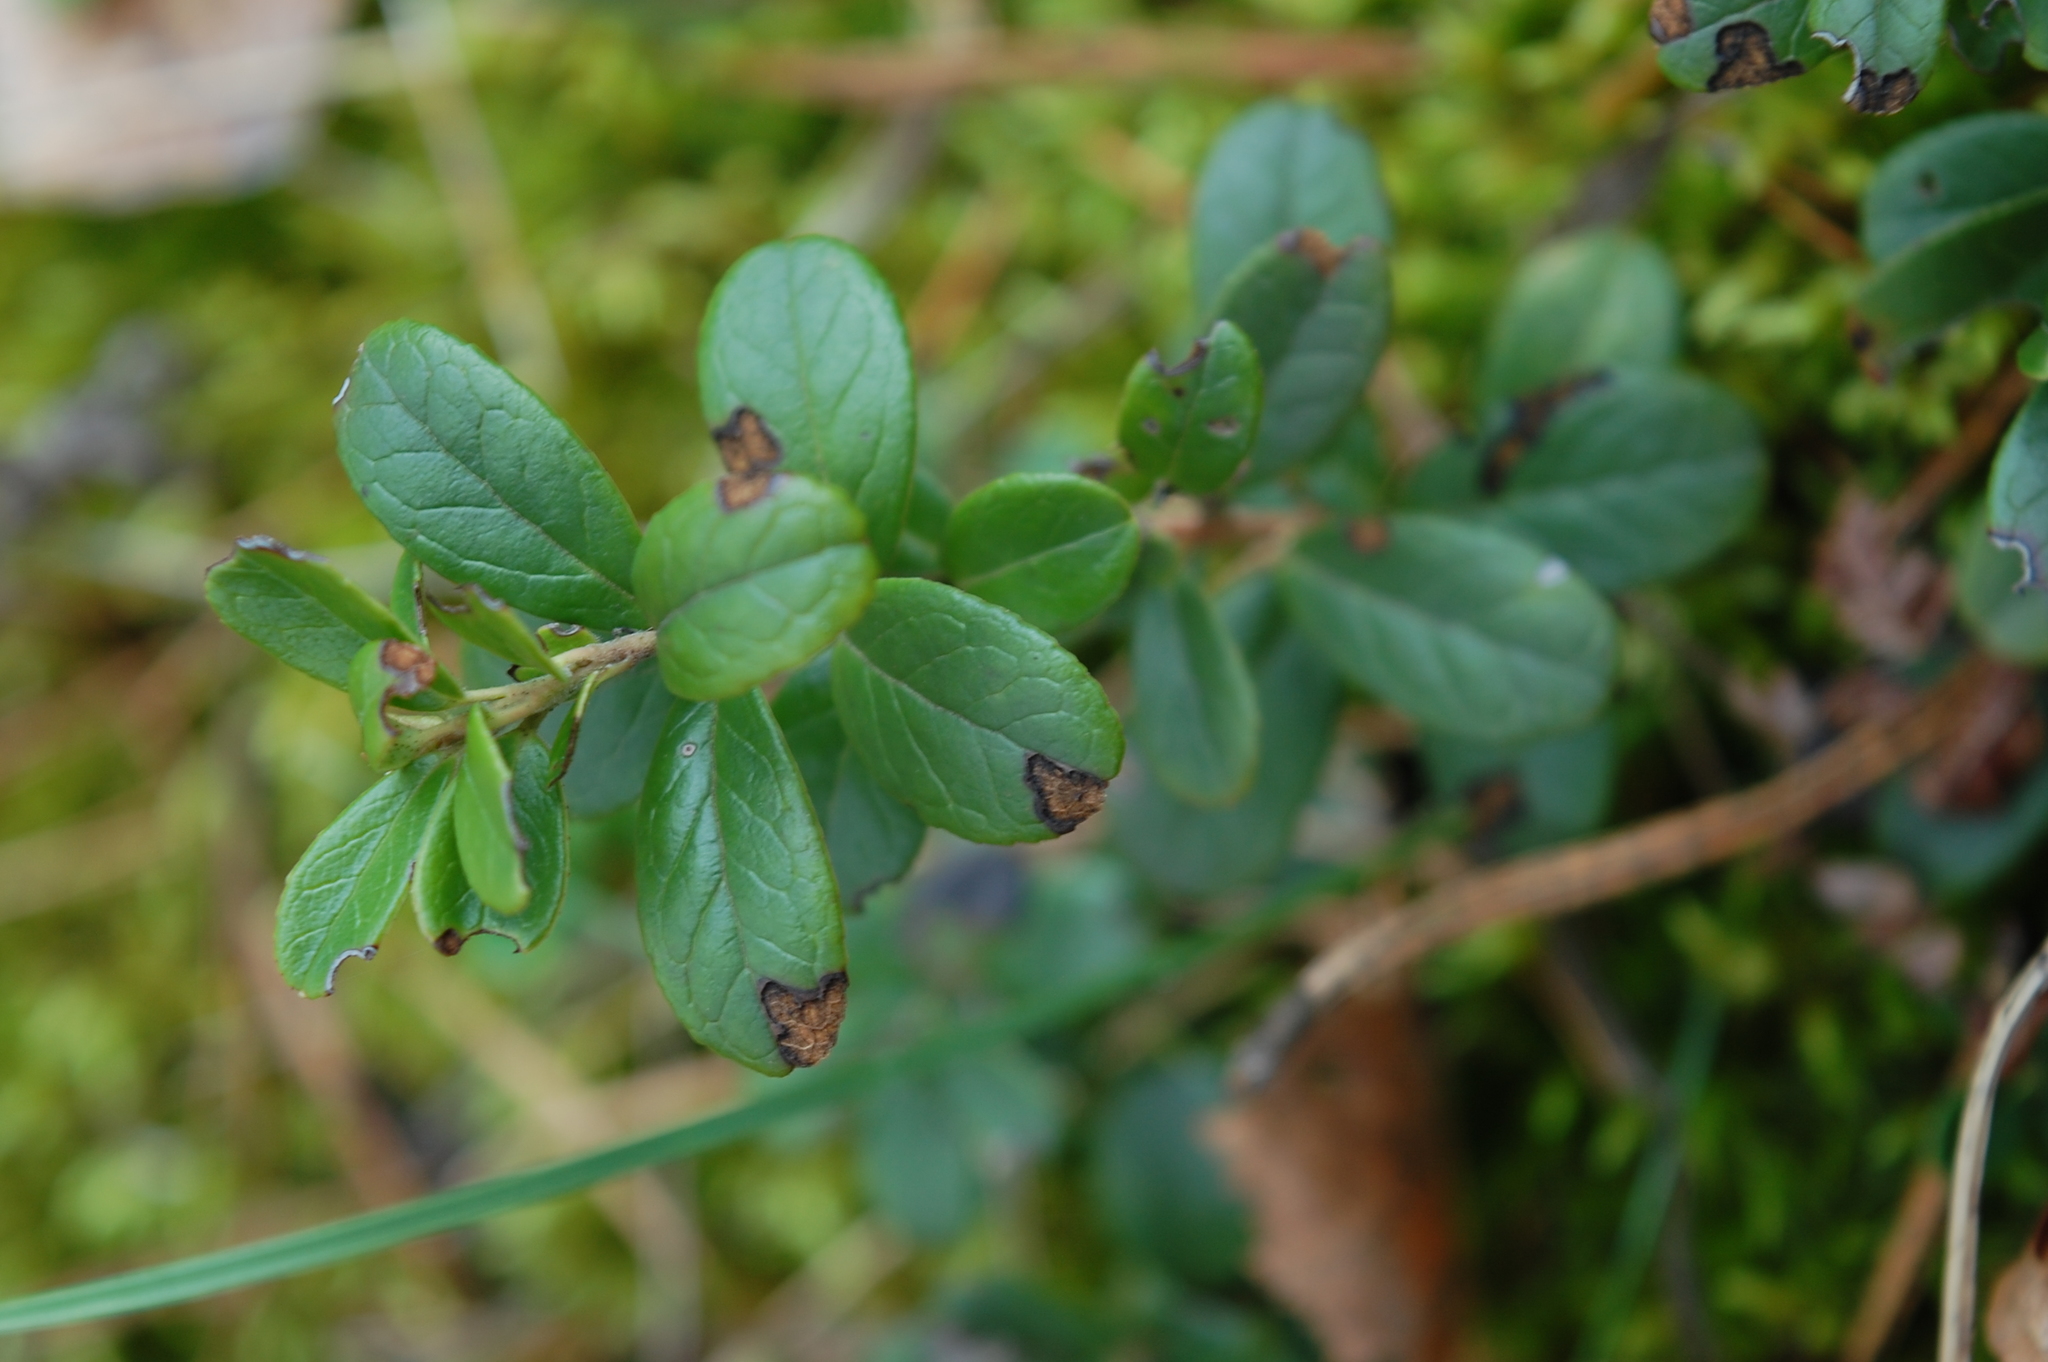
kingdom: Plantae
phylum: Tracheophyta
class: Magnoliopsida
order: Ericales
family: Ericaceae
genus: Vaccinium
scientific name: Vaccinium vitis-idaea
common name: Cowberry
